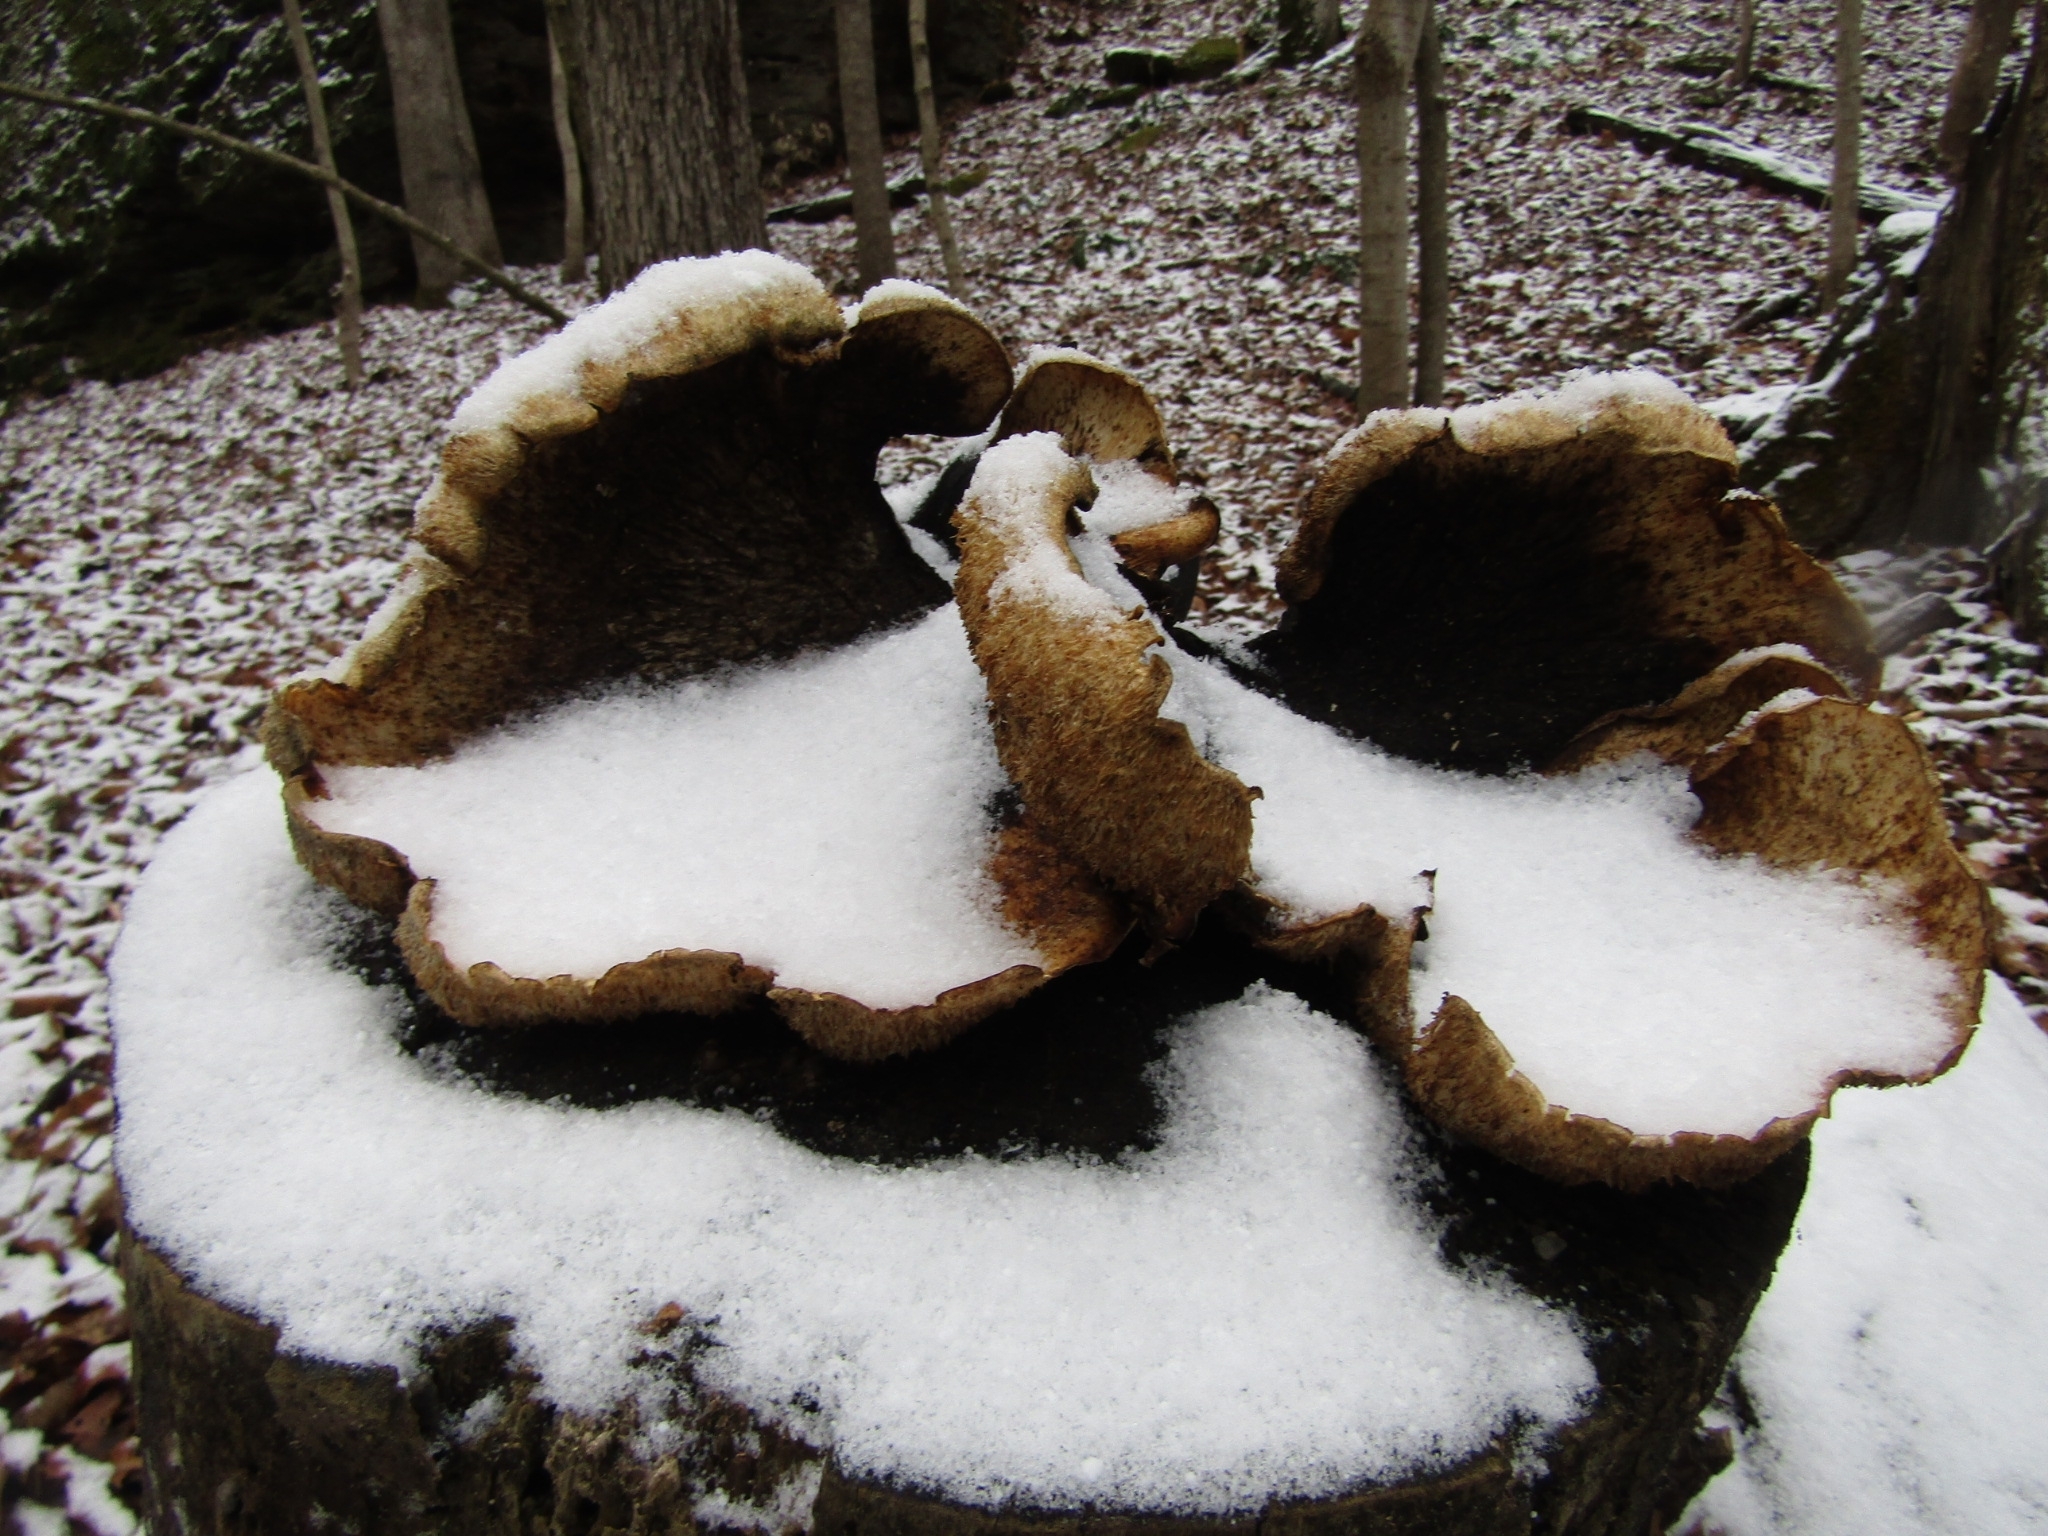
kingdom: Fungi
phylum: Basidiomycota
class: Agaricomycetes
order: Polyporales
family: Polyporaceae
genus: Cerioporus
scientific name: Cerioporus squamosus
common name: Dryad's saddle
